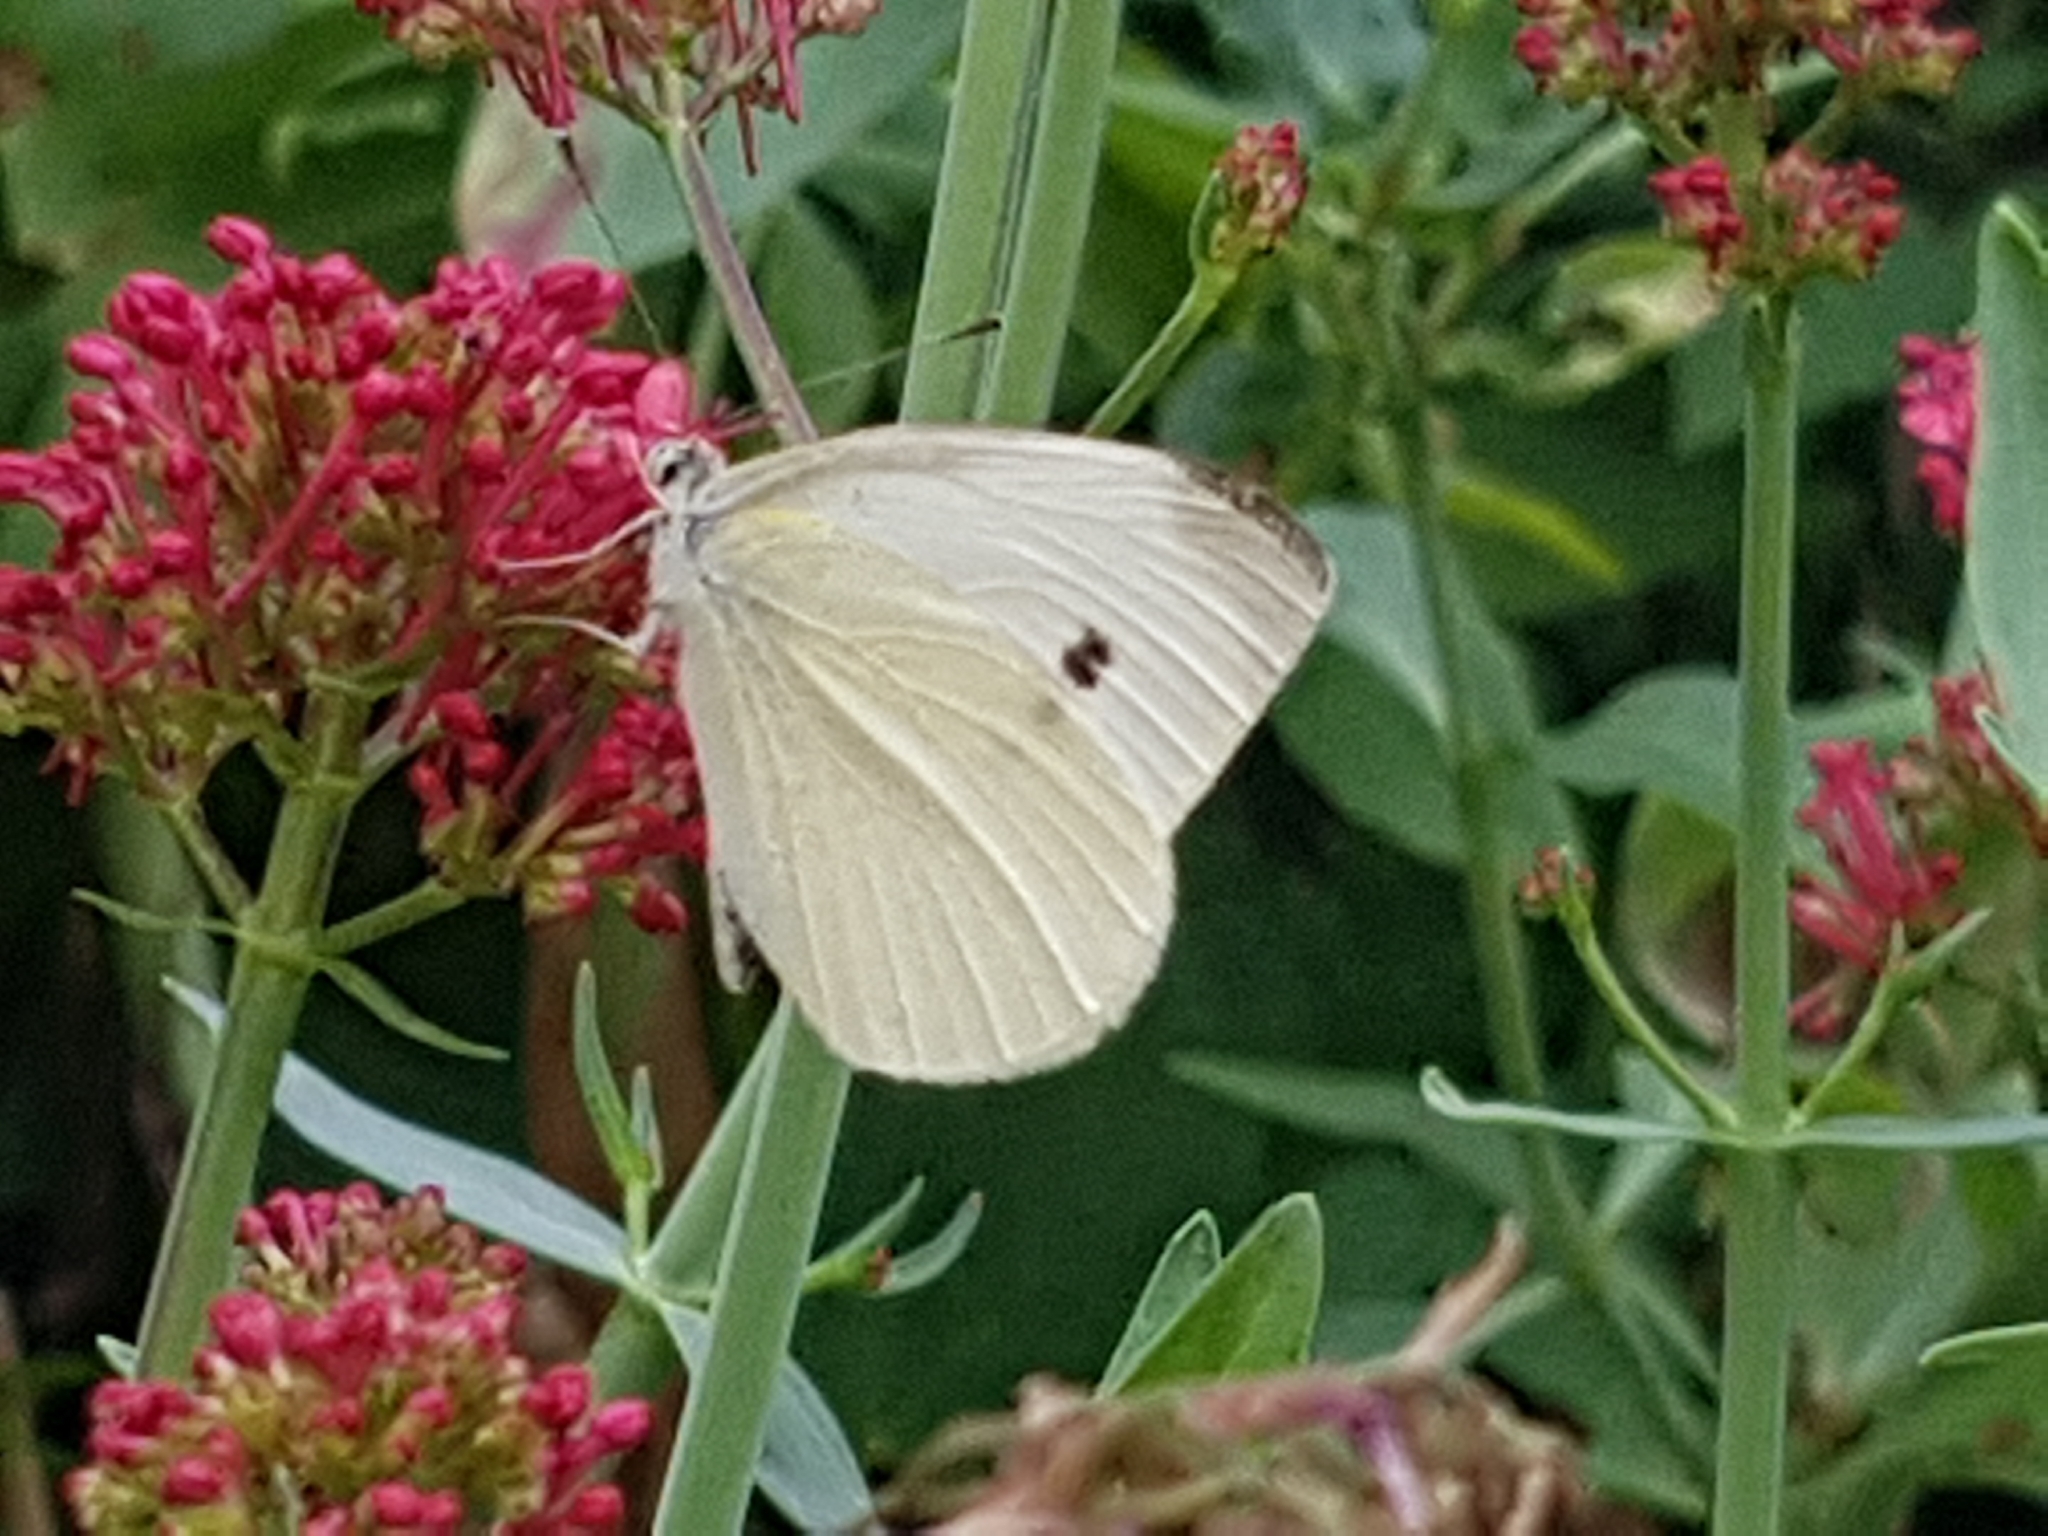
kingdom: Animalia
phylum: Arthropoda
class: Insecta
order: Lepidoptera
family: Pieridae
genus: Pieris
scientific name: Pieris rapae
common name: Small white
